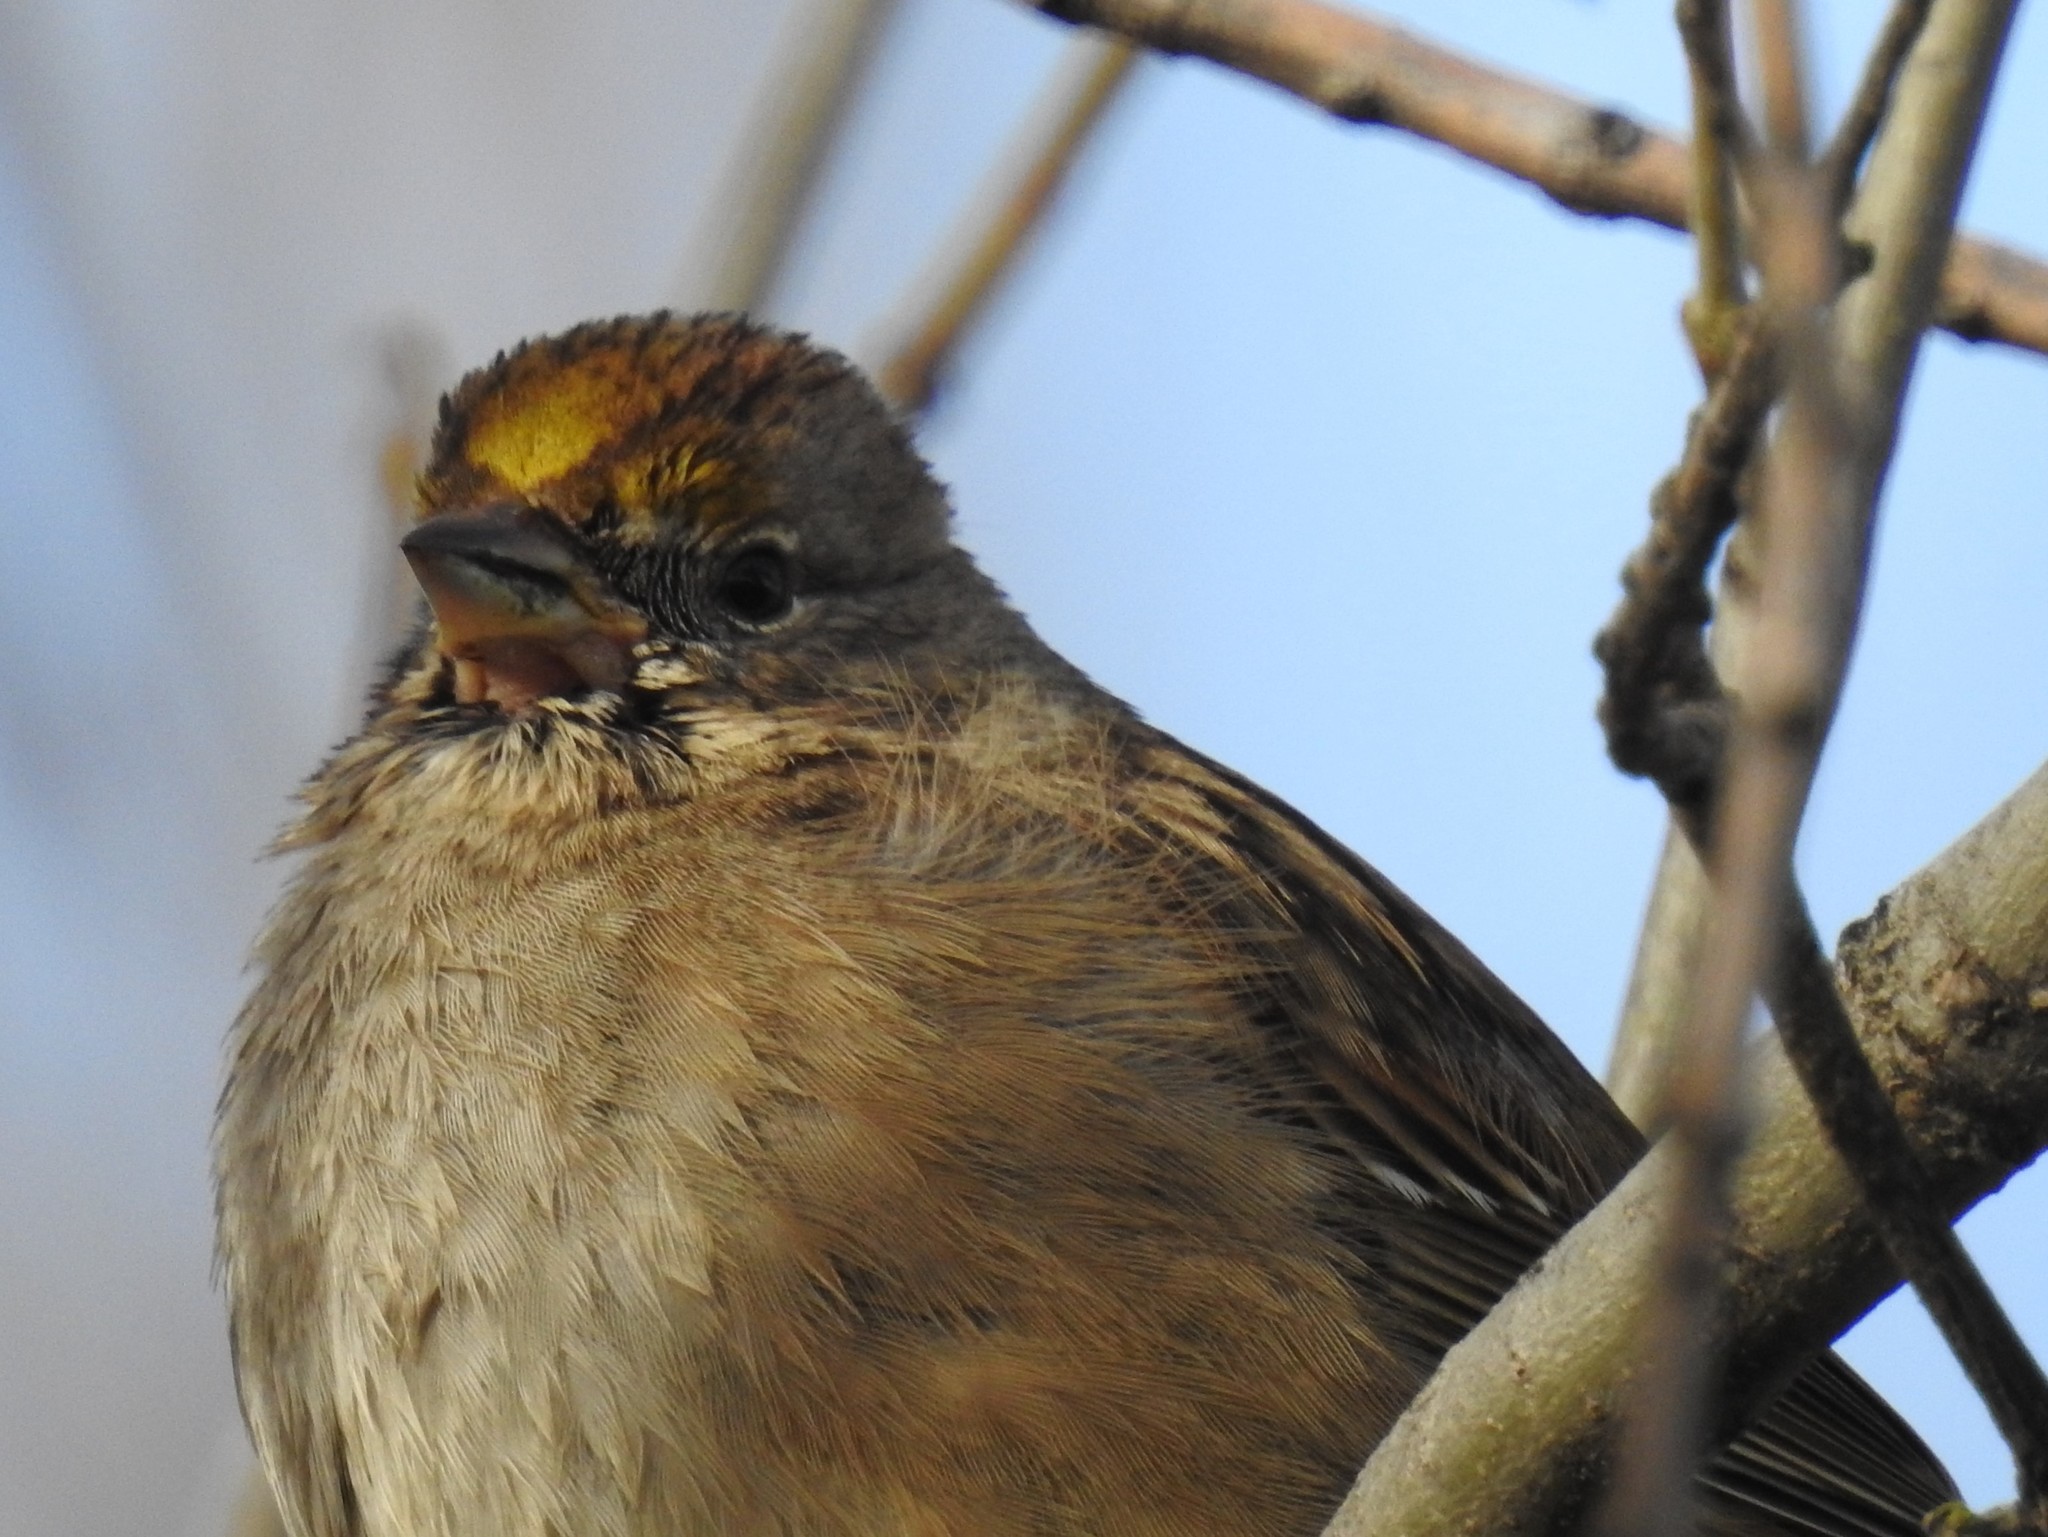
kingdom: Animalia
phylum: Chordata
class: Aves
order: Passeriformes
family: Passerellidae
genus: Zonotrichia
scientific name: Zonotrichia atricapilla
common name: Golden-crowned sparrow
